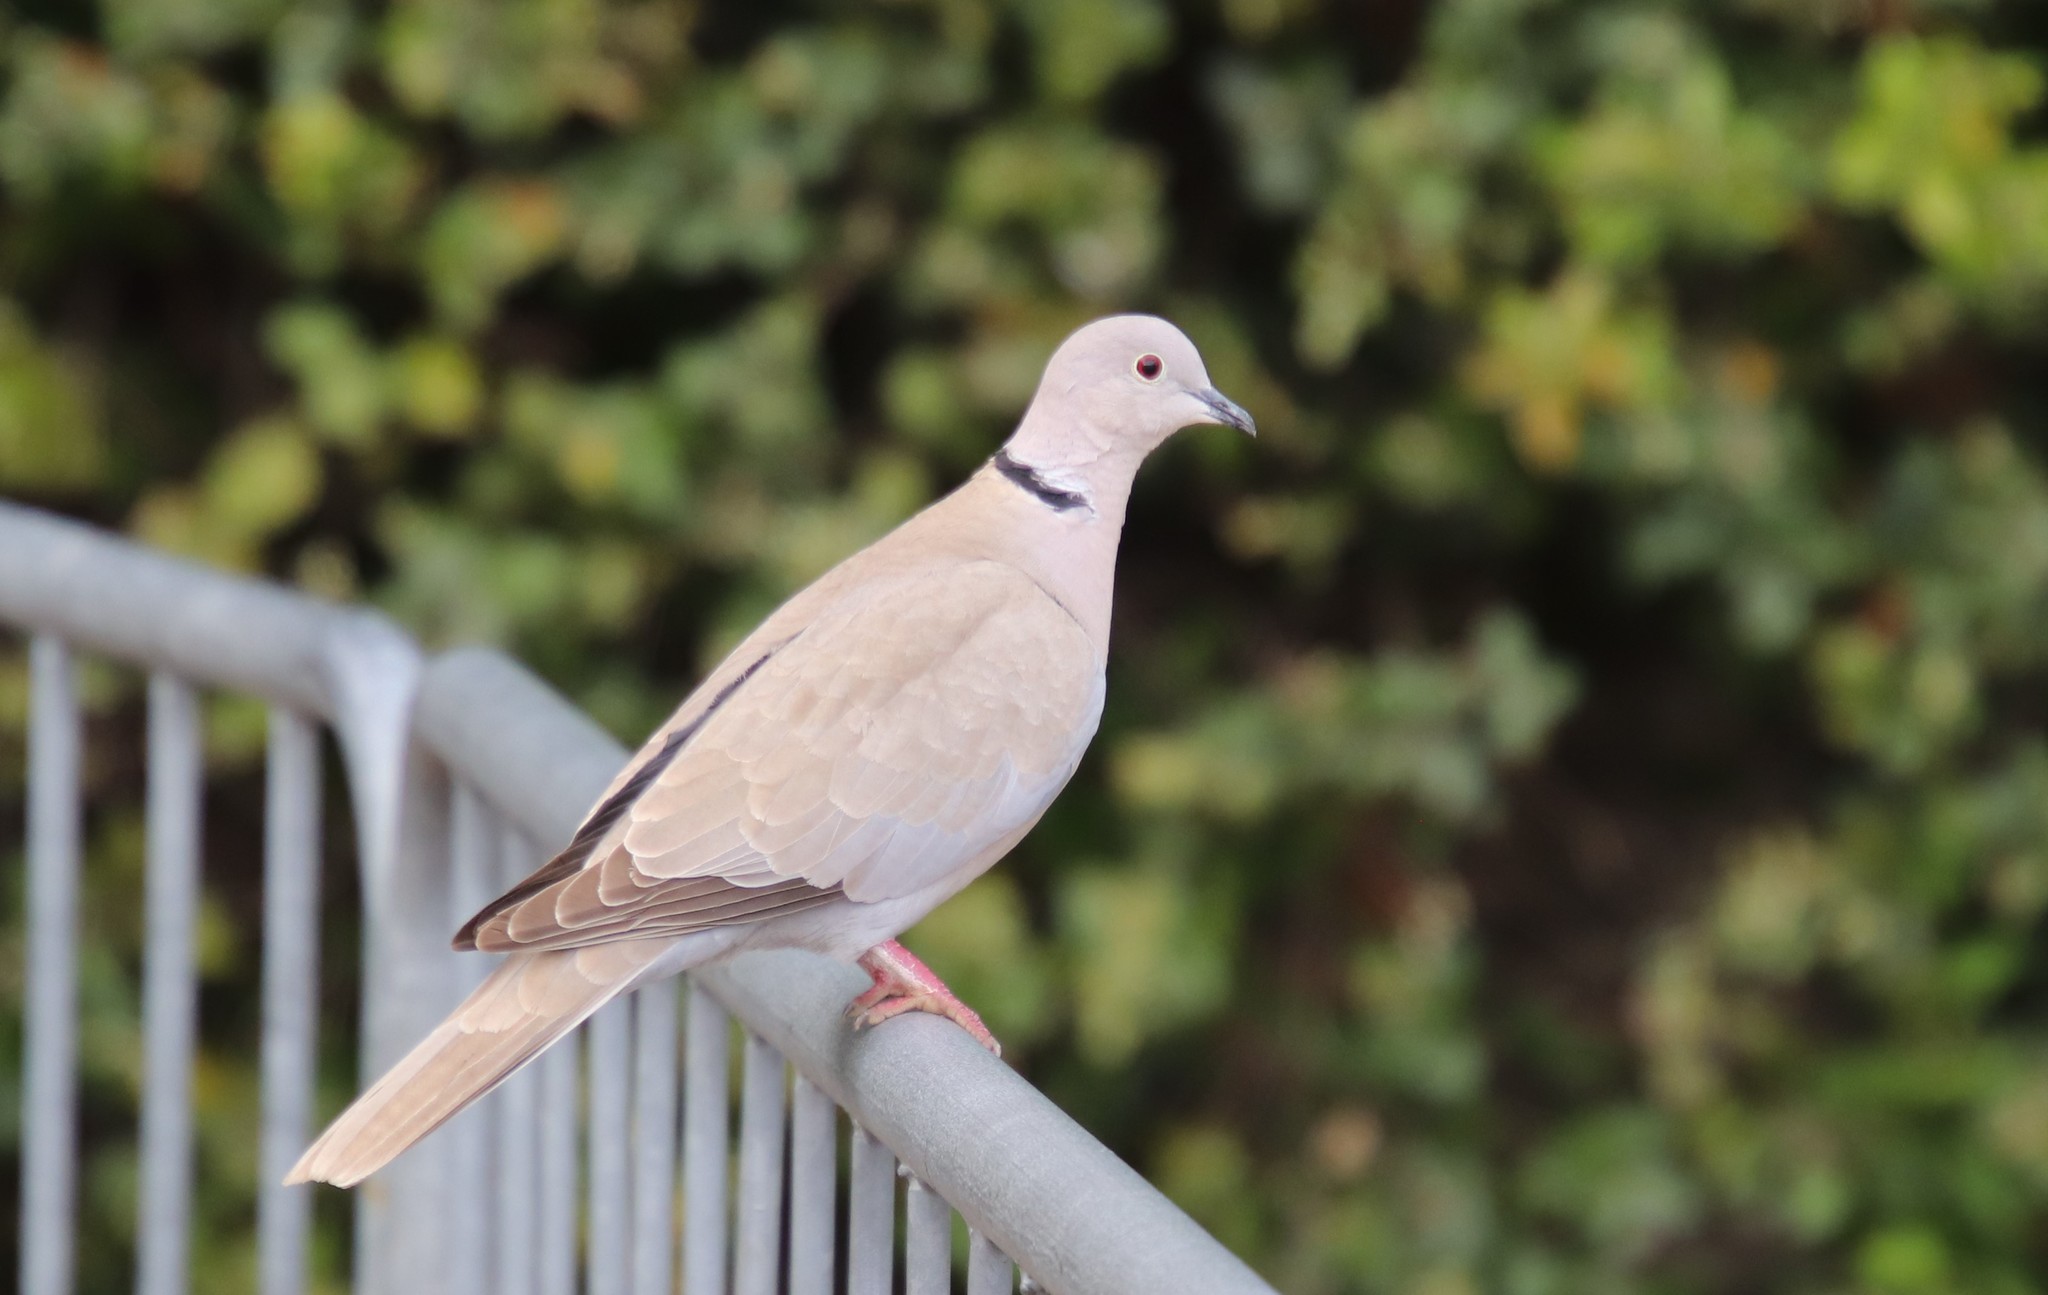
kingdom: Animalia
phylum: Chordata
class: Aves
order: Columbiformes
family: Columbidae
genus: Streptopelia
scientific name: Streptopelia decaocto
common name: Eurasian collared dove
